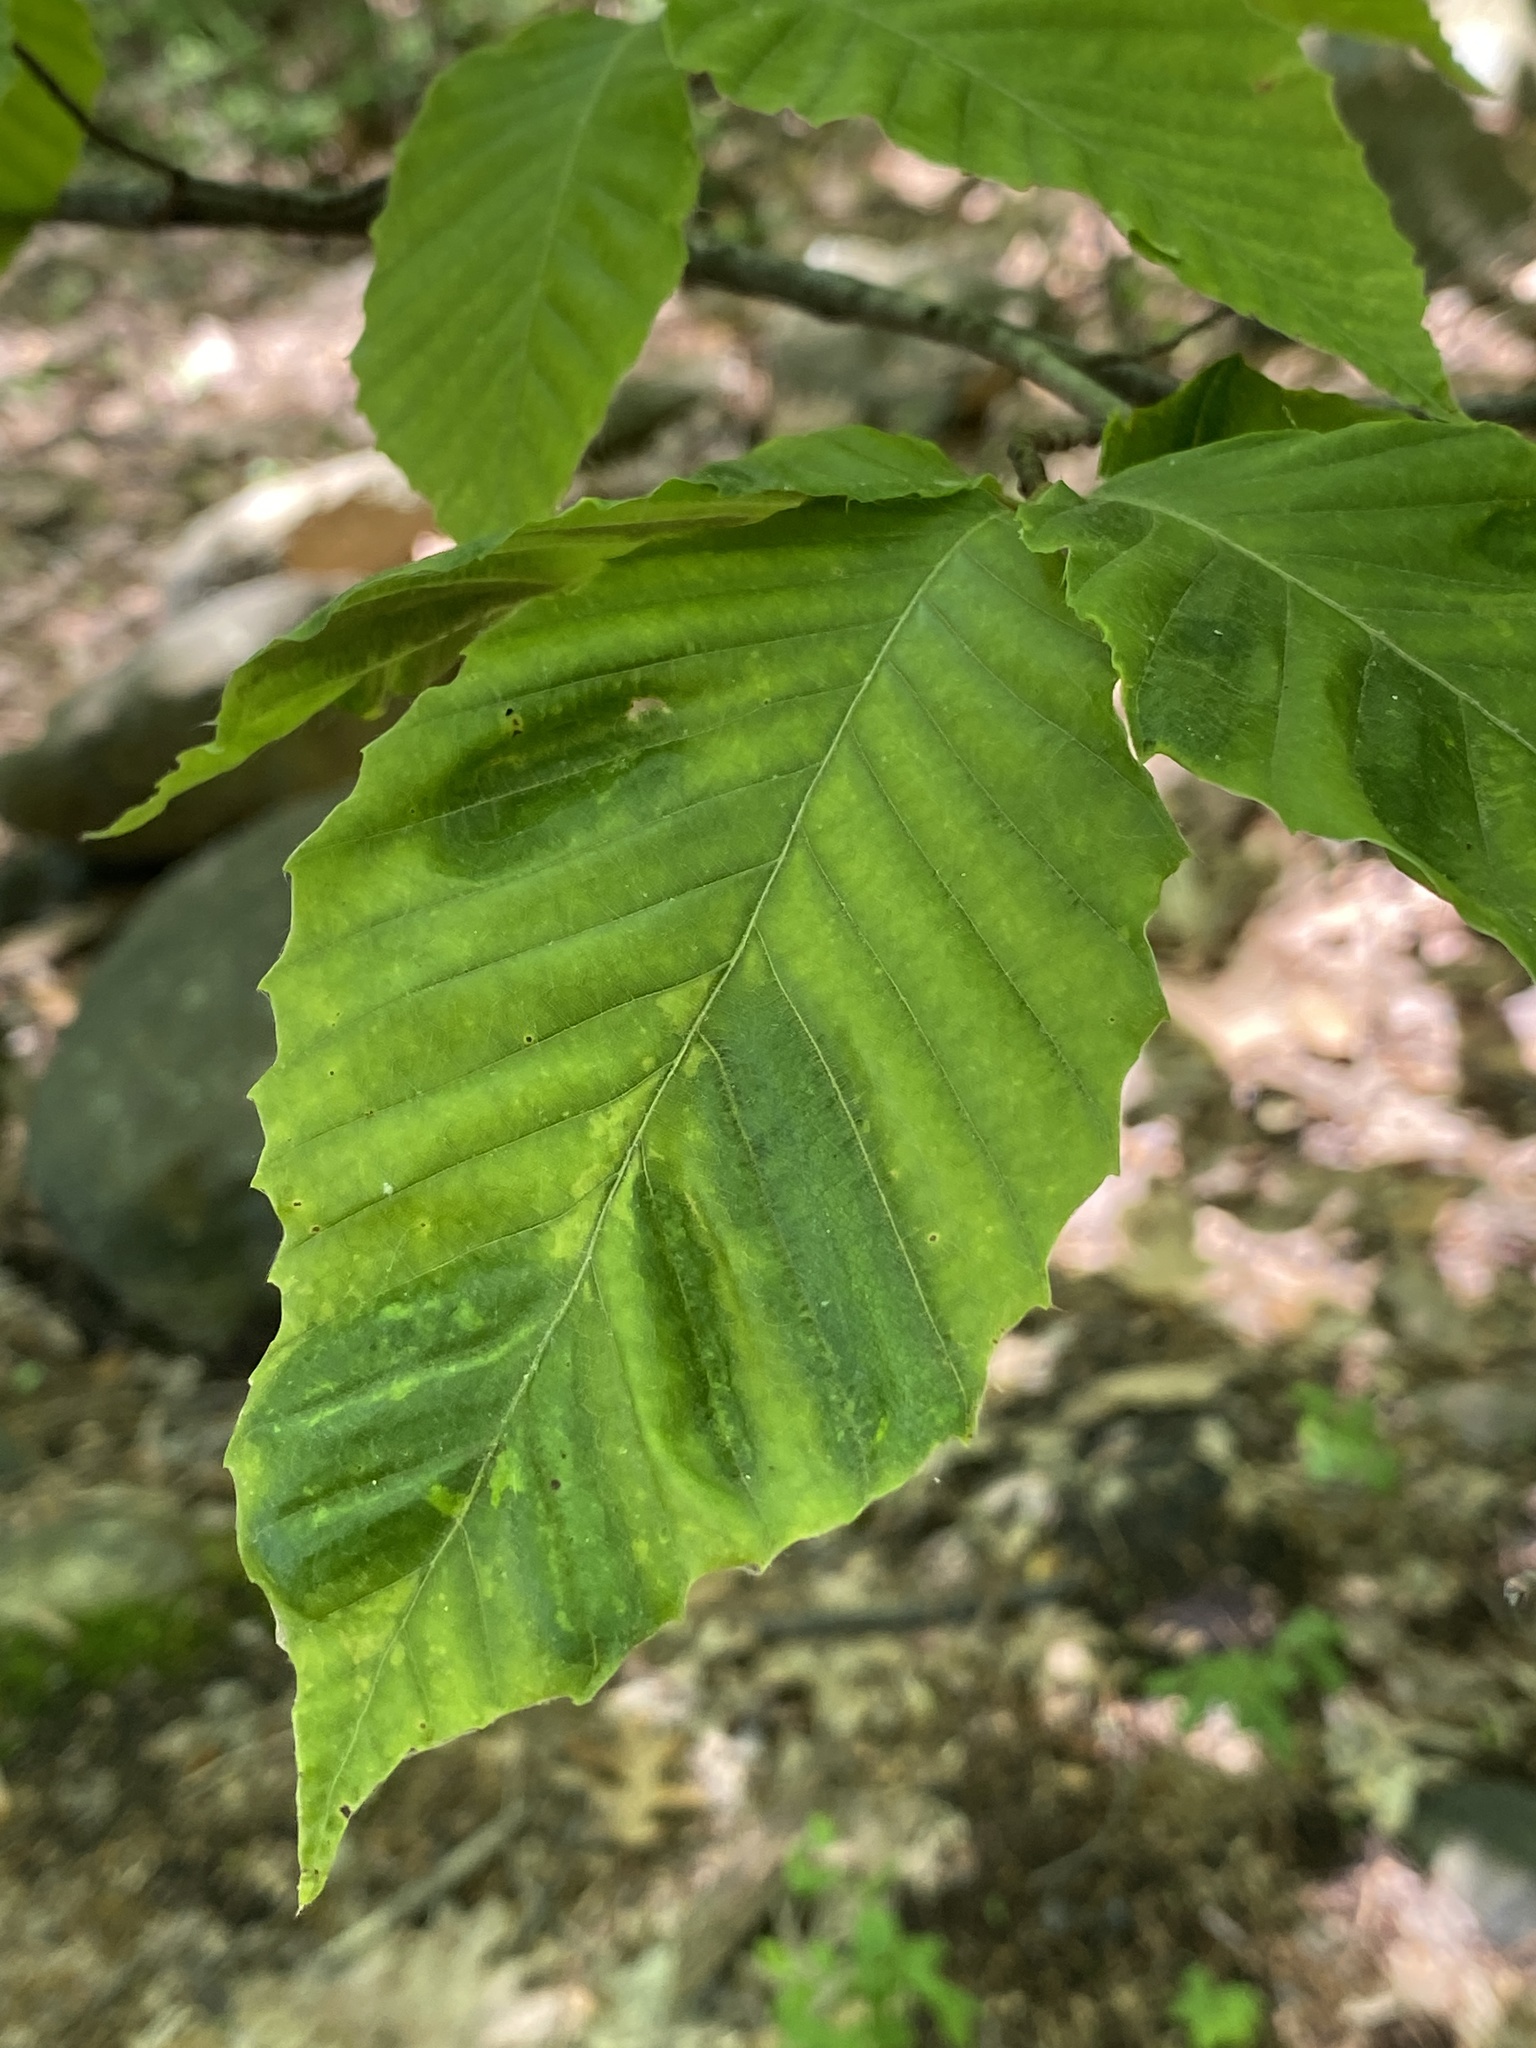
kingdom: Animalia
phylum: Nematoda
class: Chromadorea
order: Rhabditida
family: Anguinidae
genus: Litylenchus
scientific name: Litylenchus crenatae
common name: Beech leaf disease
